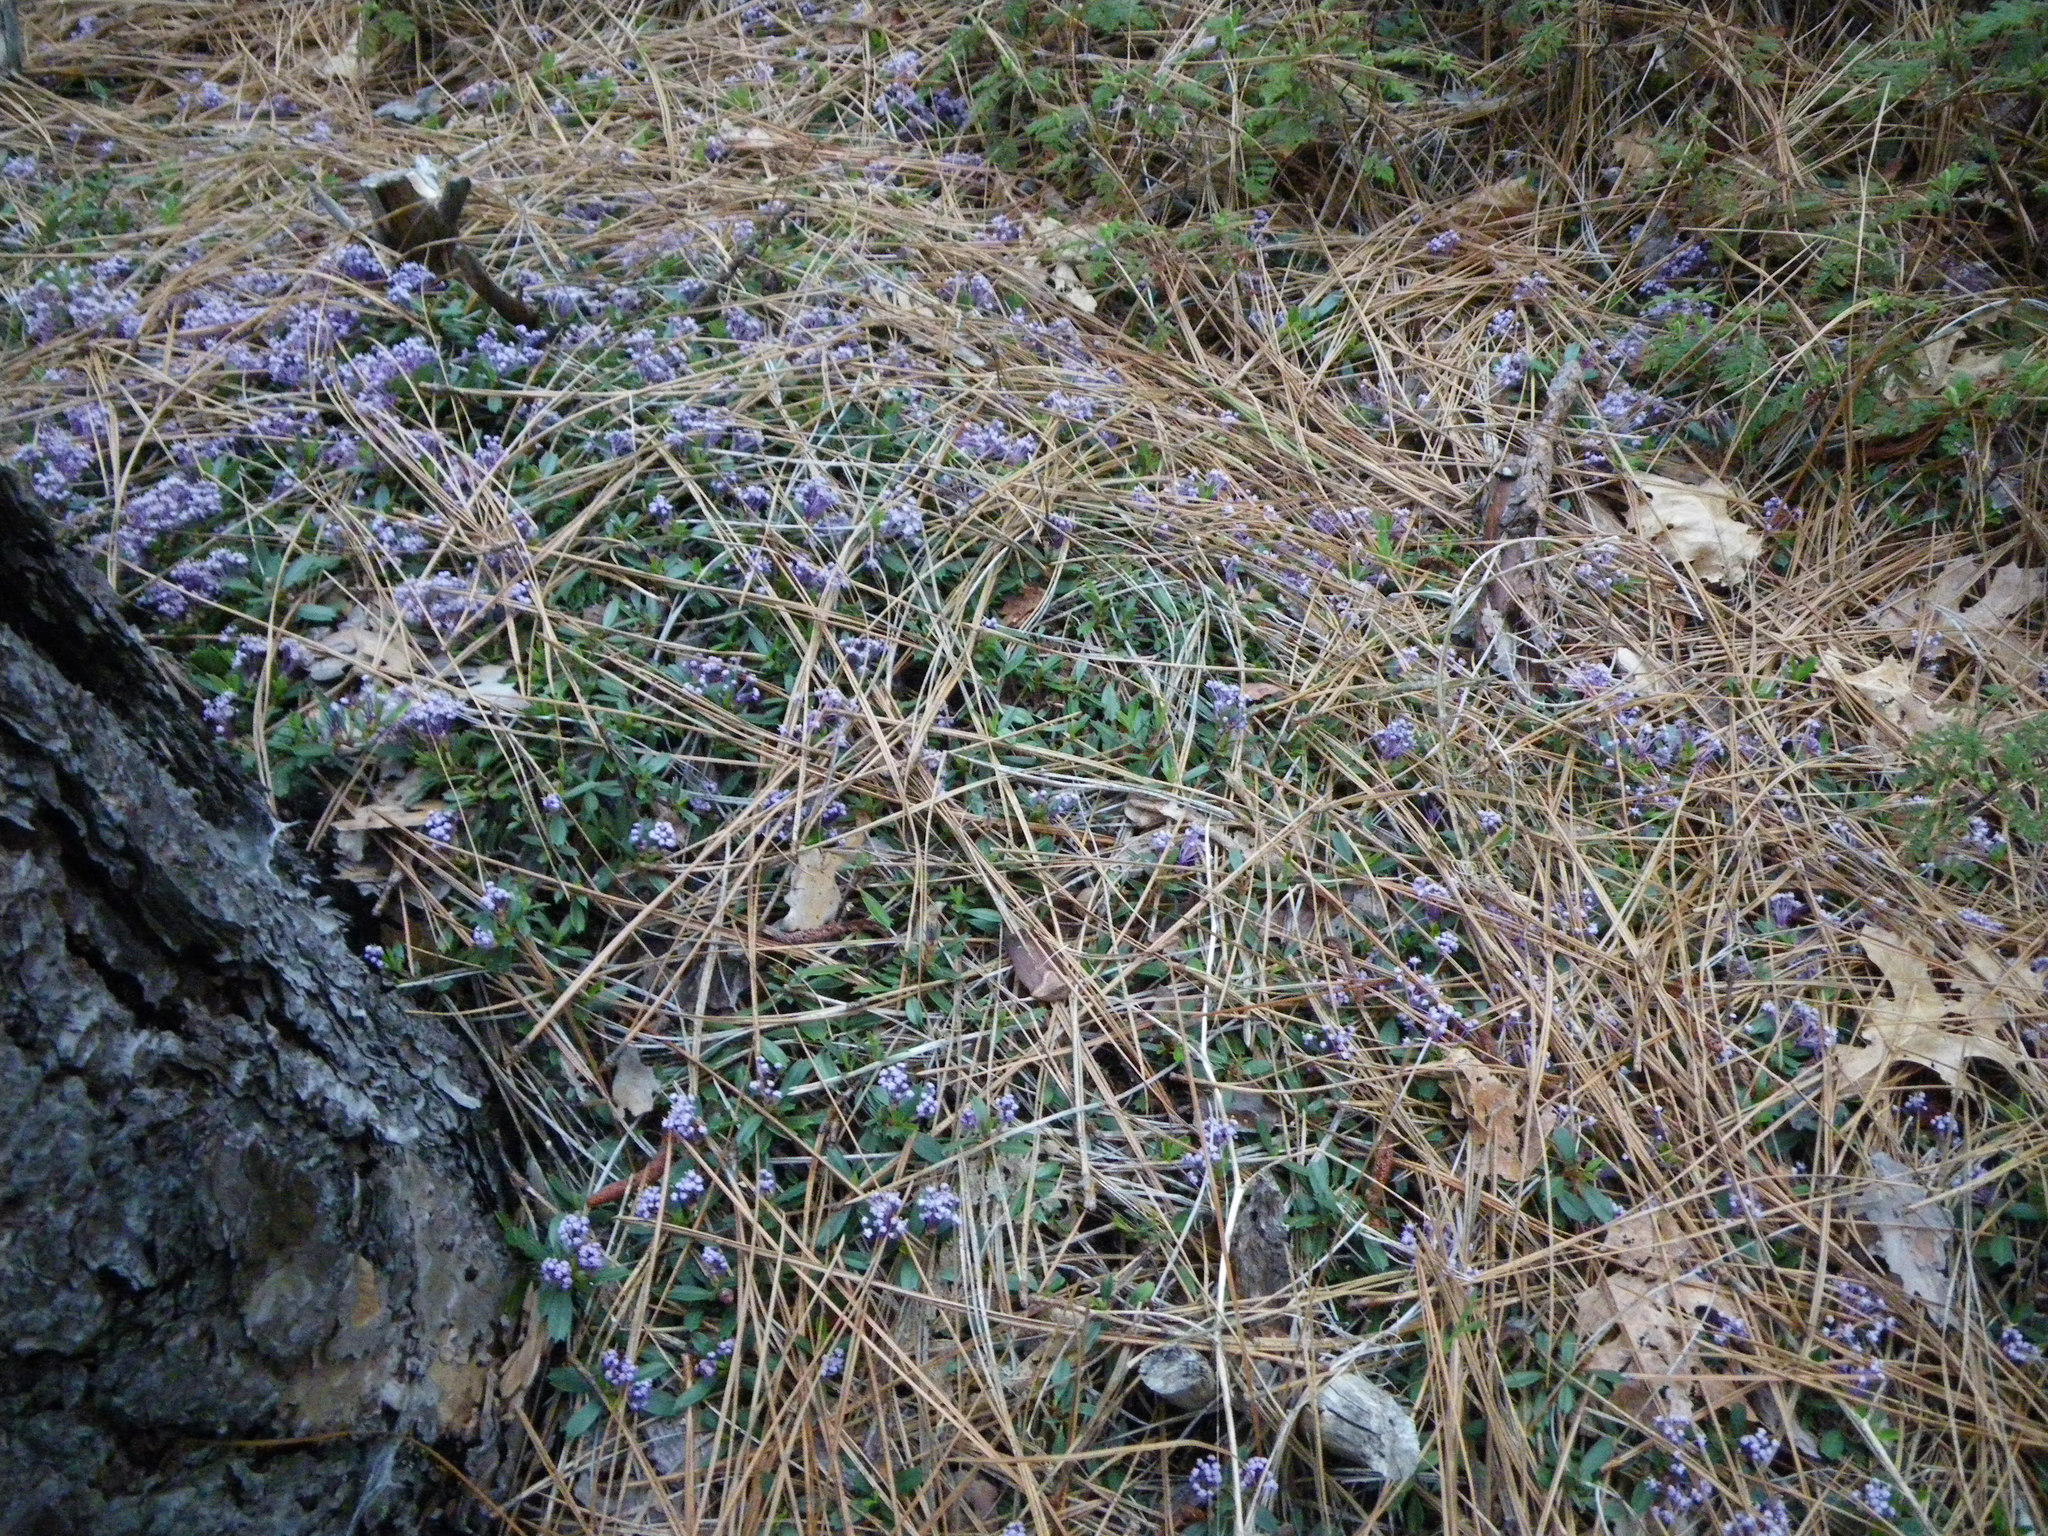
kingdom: Plantae
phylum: Tracheophyta
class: Magnoliopsida
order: Rosales
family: Rhamnaceae
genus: Ceanothus
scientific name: Ceanothus prostratus
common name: Mahala-mat
